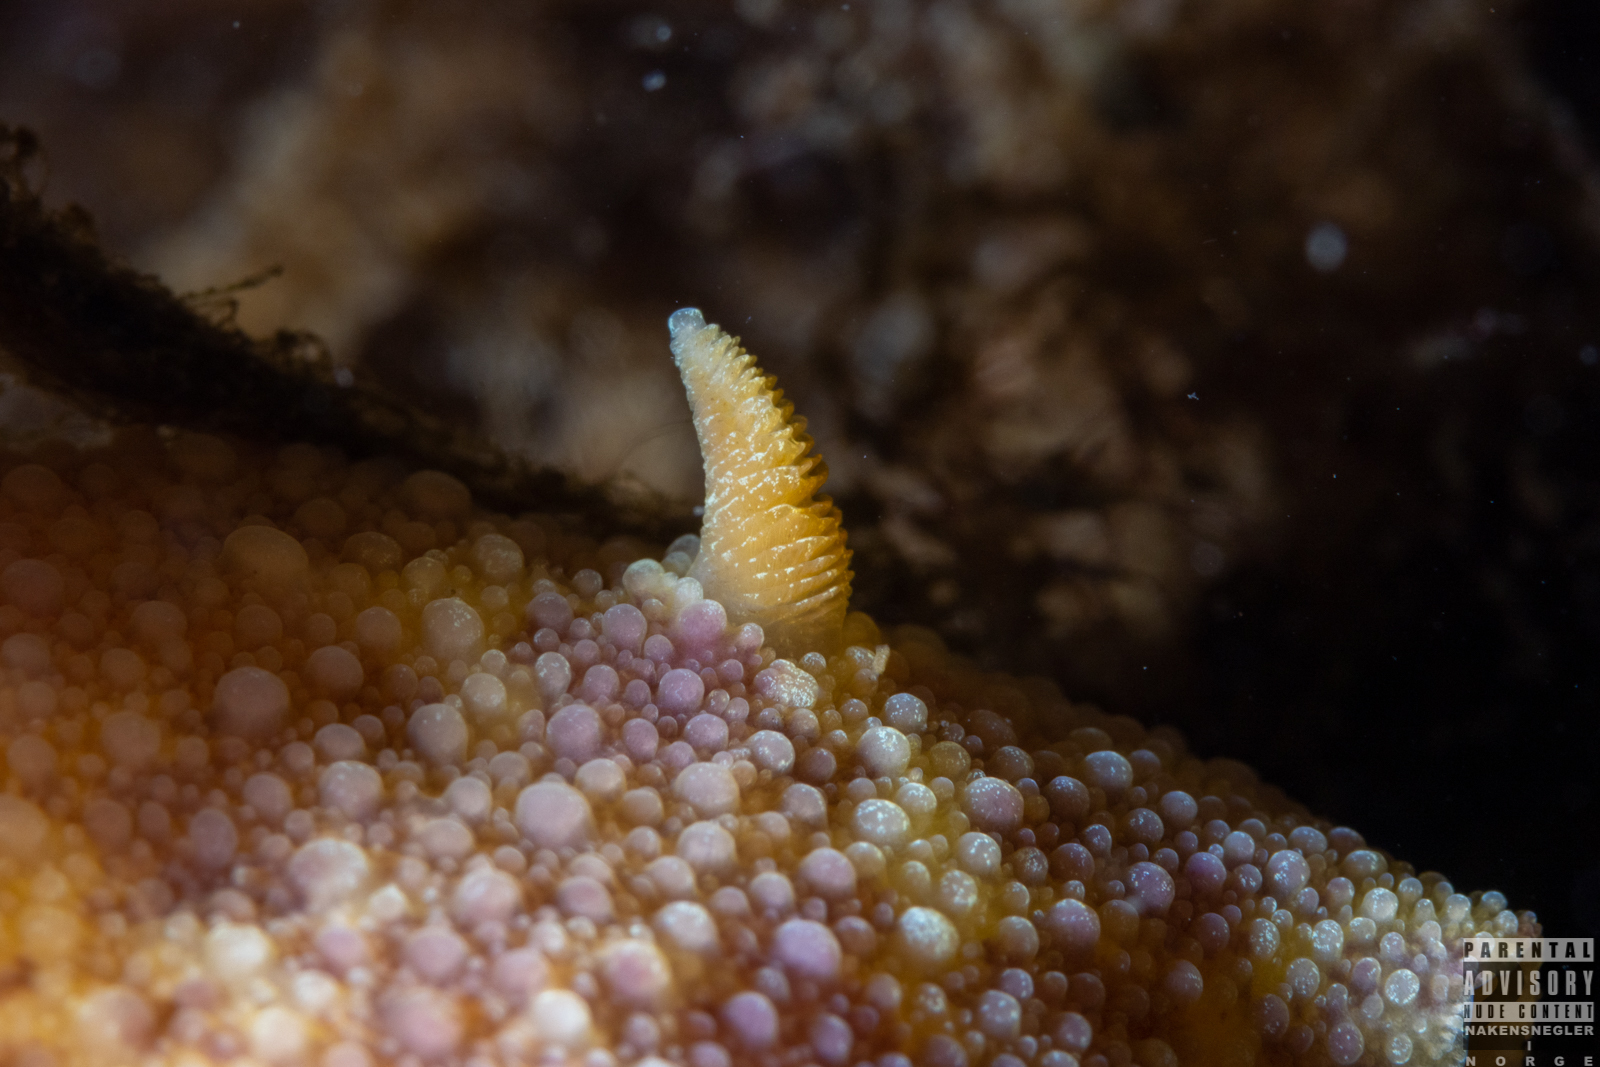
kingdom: Animalia
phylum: Mollusca
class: Gastropoda
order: Nudibranchia
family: Dorididae
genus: Doris
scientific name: Doris pseudoargus
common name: Sea lemon
